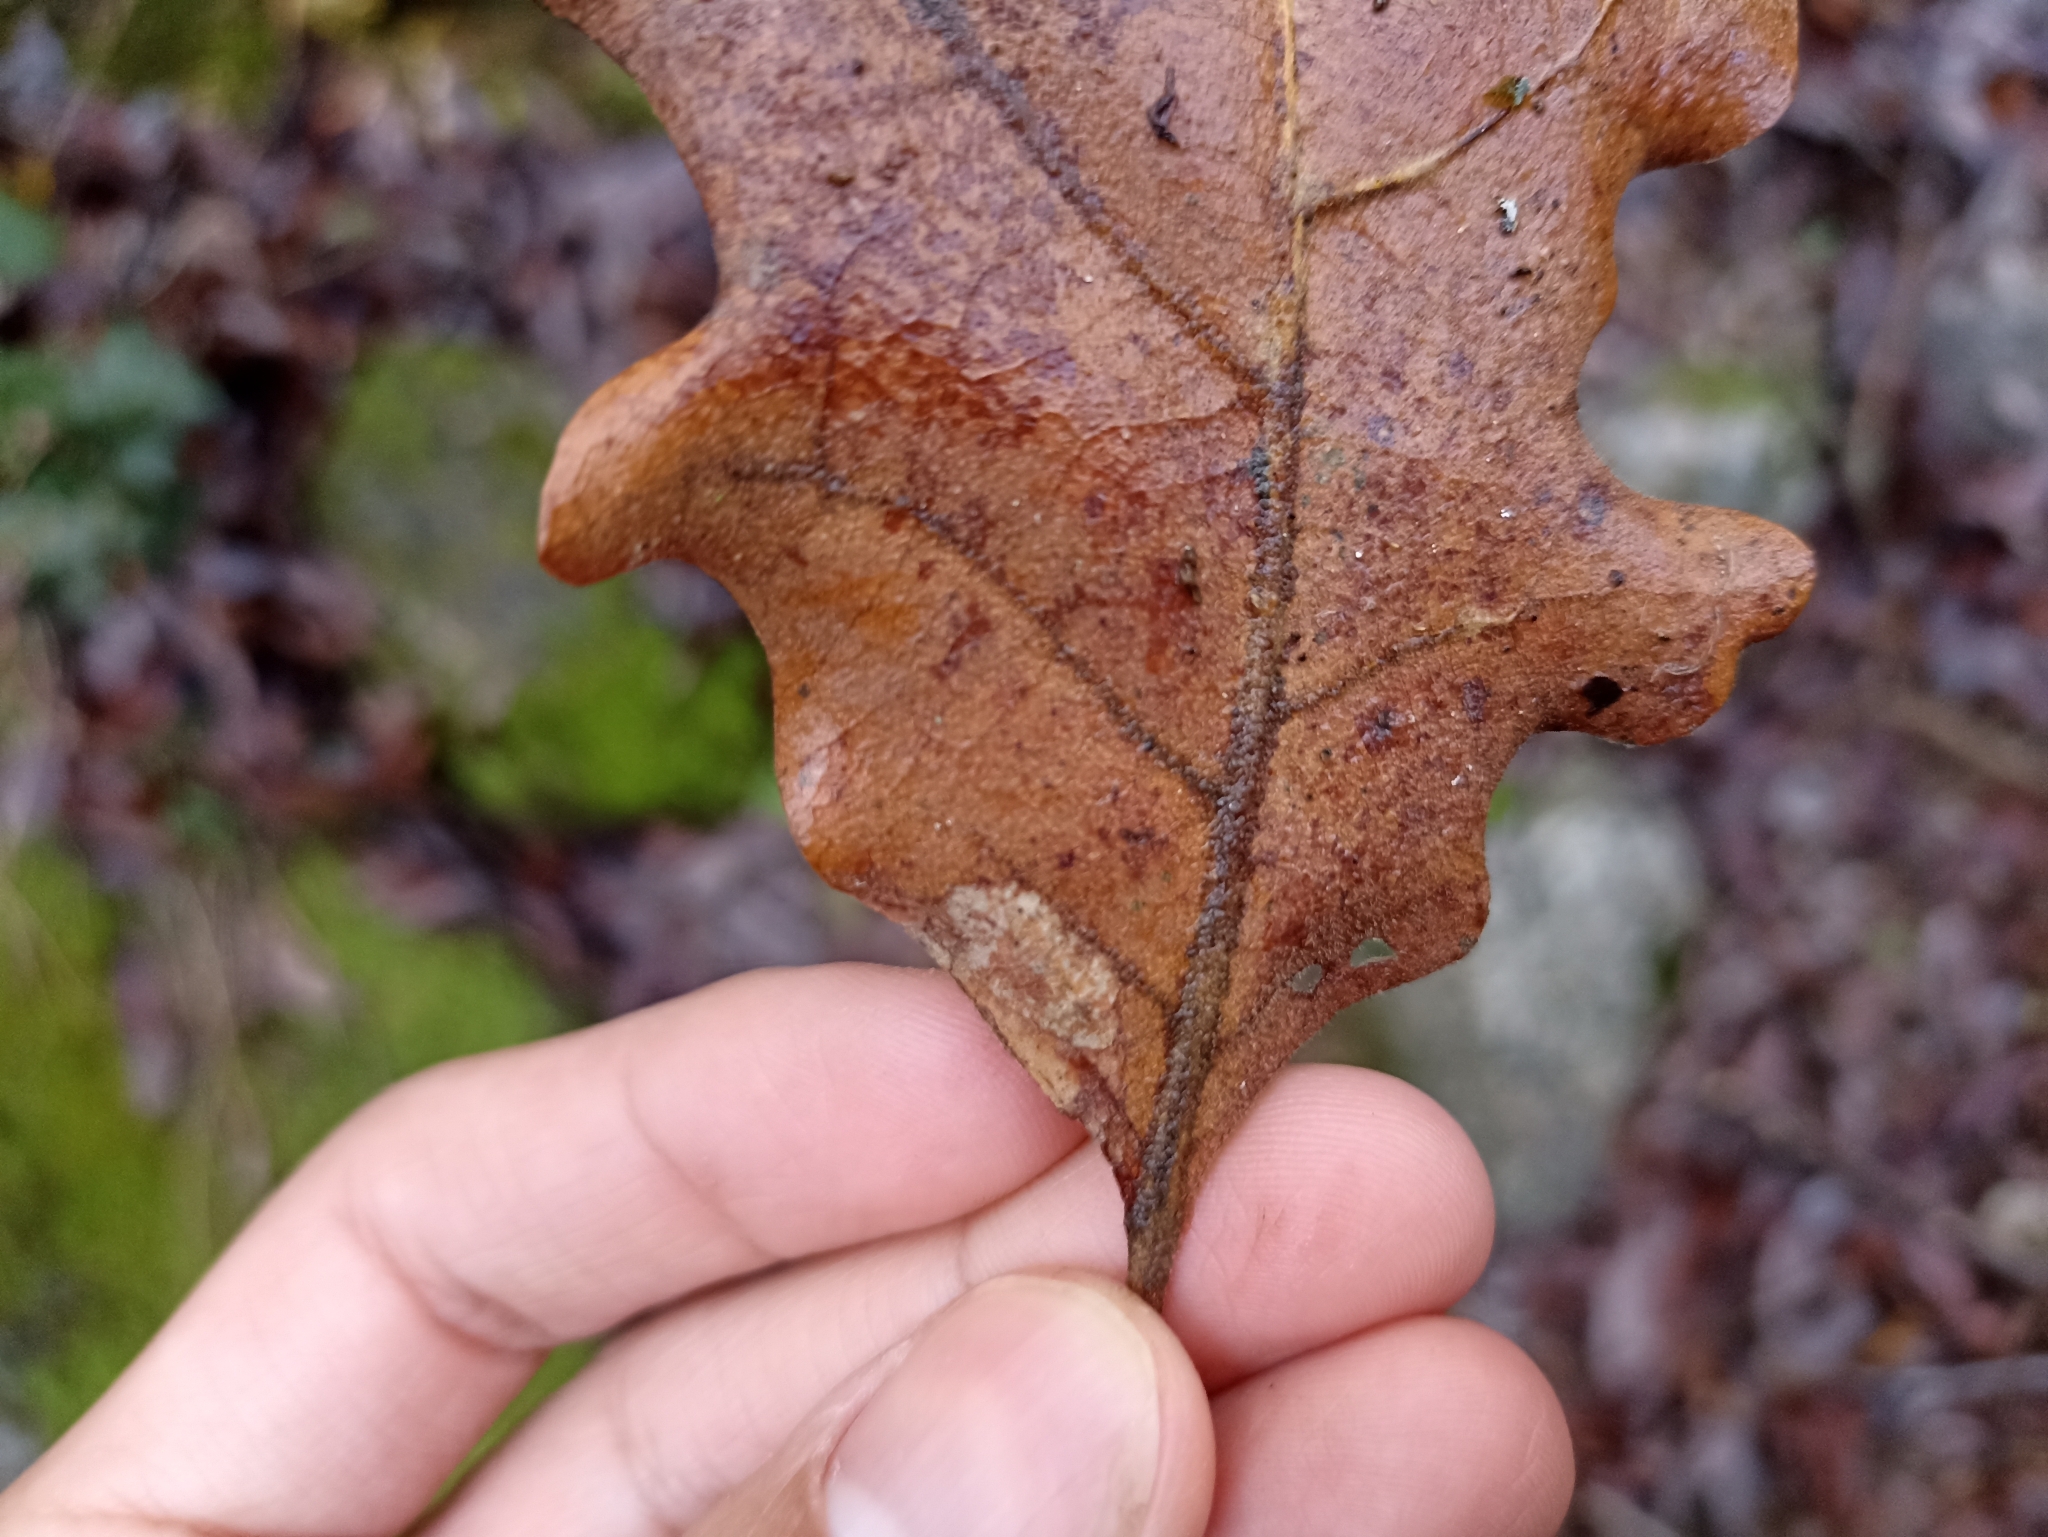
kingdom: Animalia
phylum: Arthropoda
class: Insecta
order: Lepidoptera
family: Gracillariidae
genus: Phyllonorycter
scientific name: Phyllonorycter roboris
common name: Gold-bent midget
